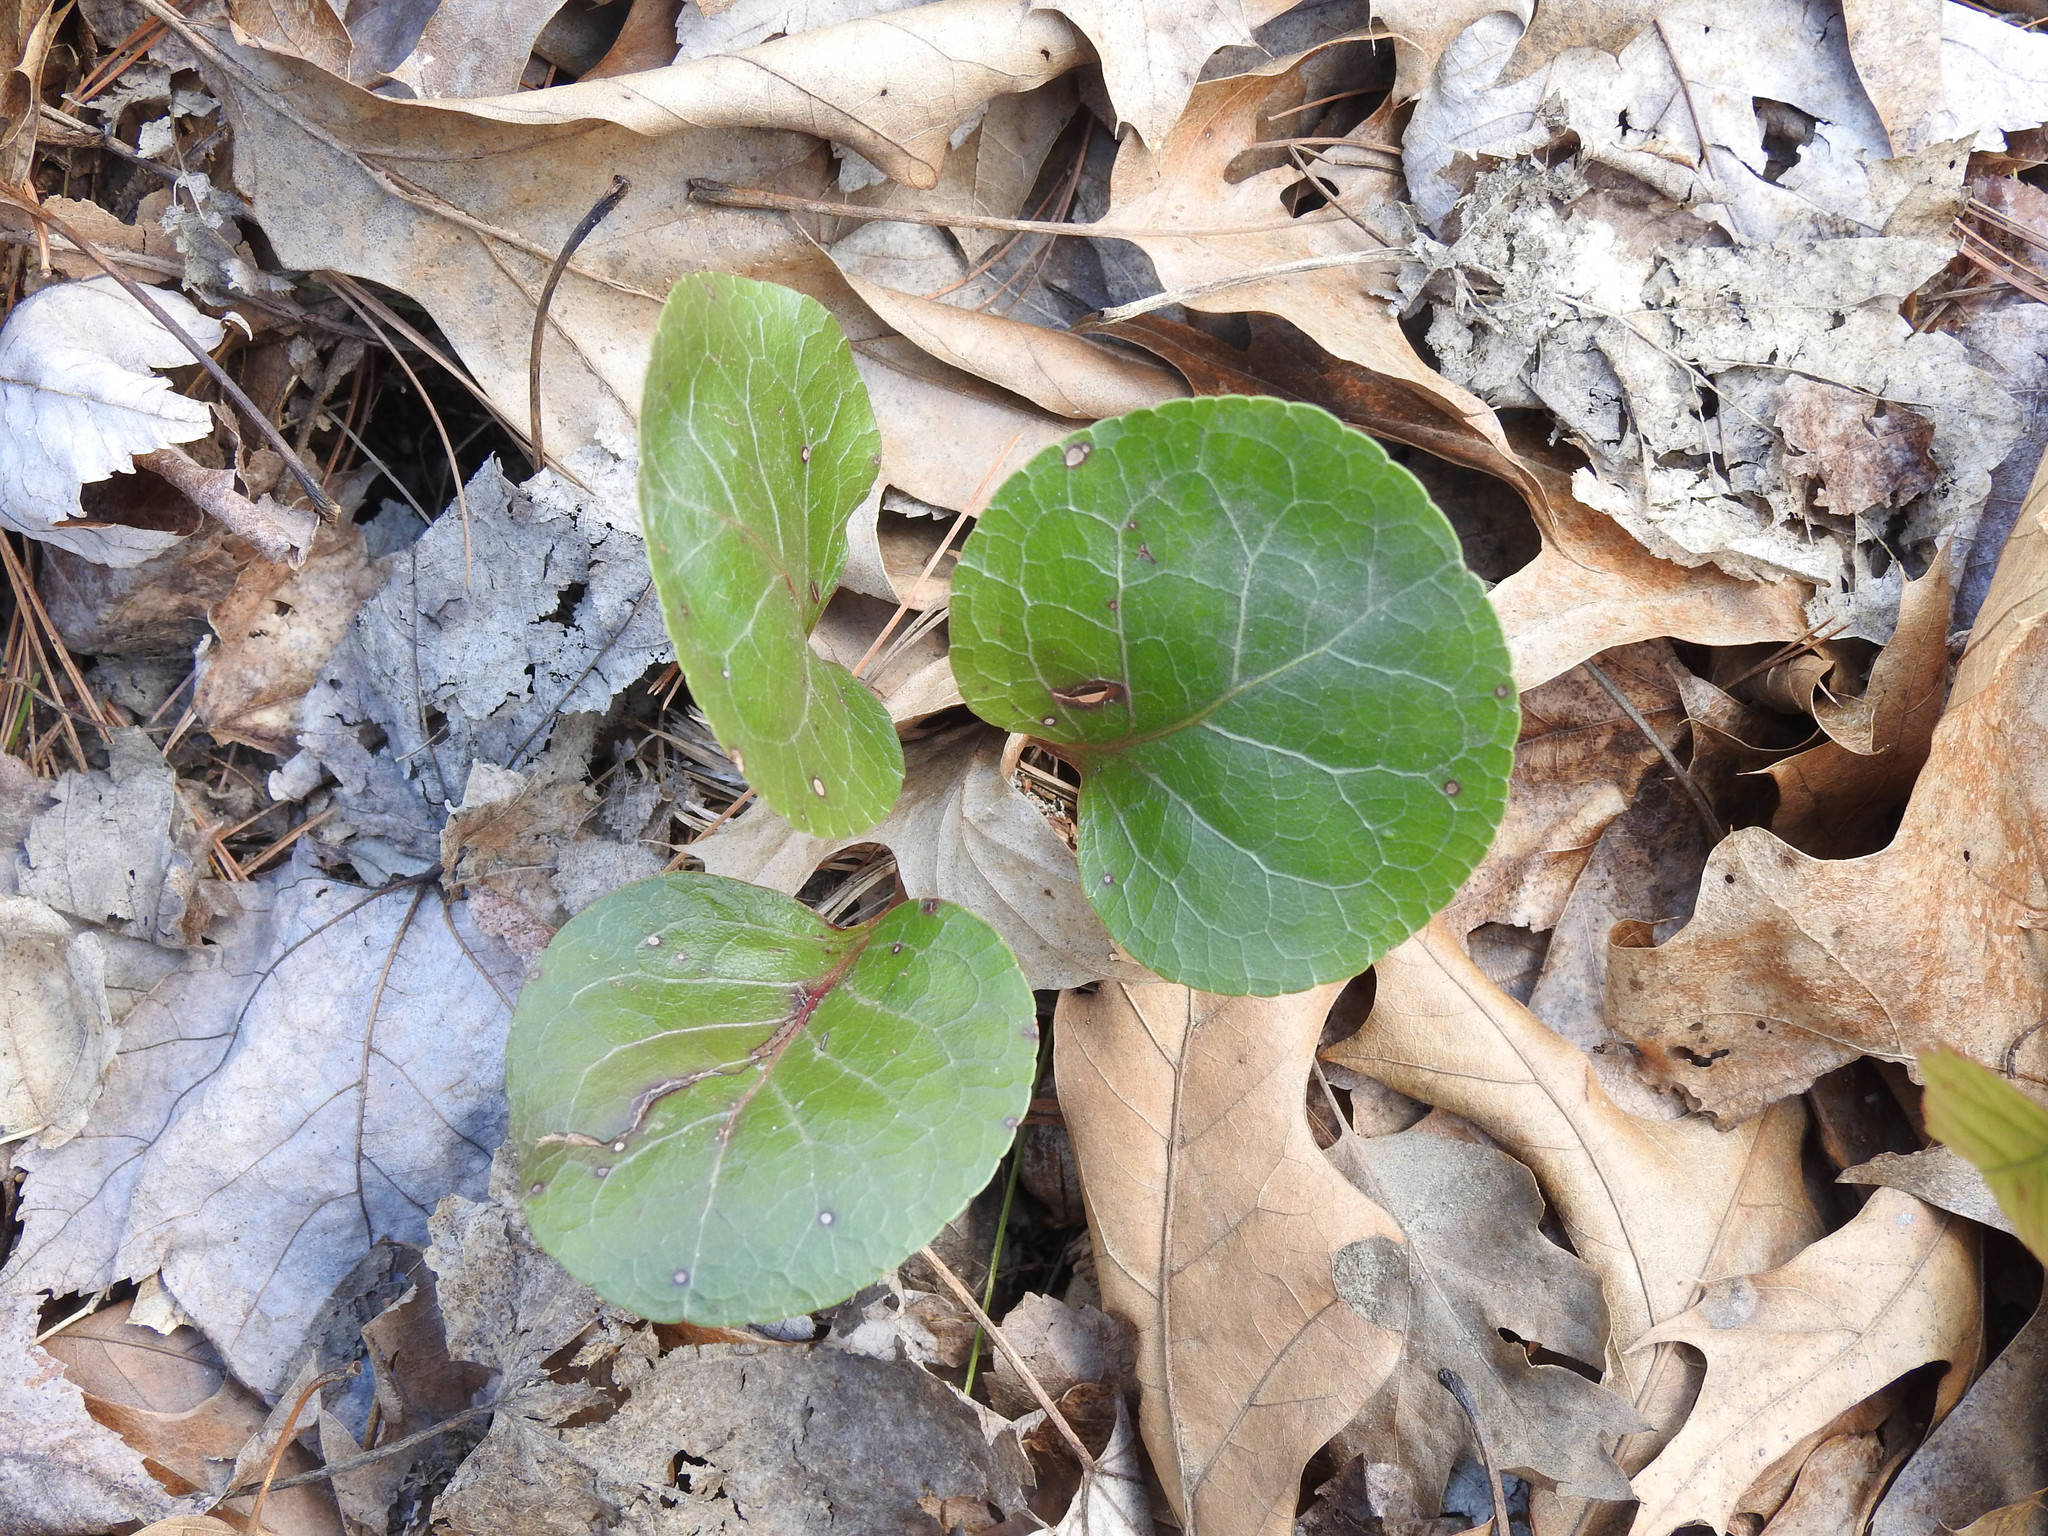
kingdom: Plantae
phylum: Tracheophyta
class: Magnoliopsida
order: Ericales
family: Ericaceae
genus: Pyrola
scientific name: Pyrola americana
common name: American wintergreen
